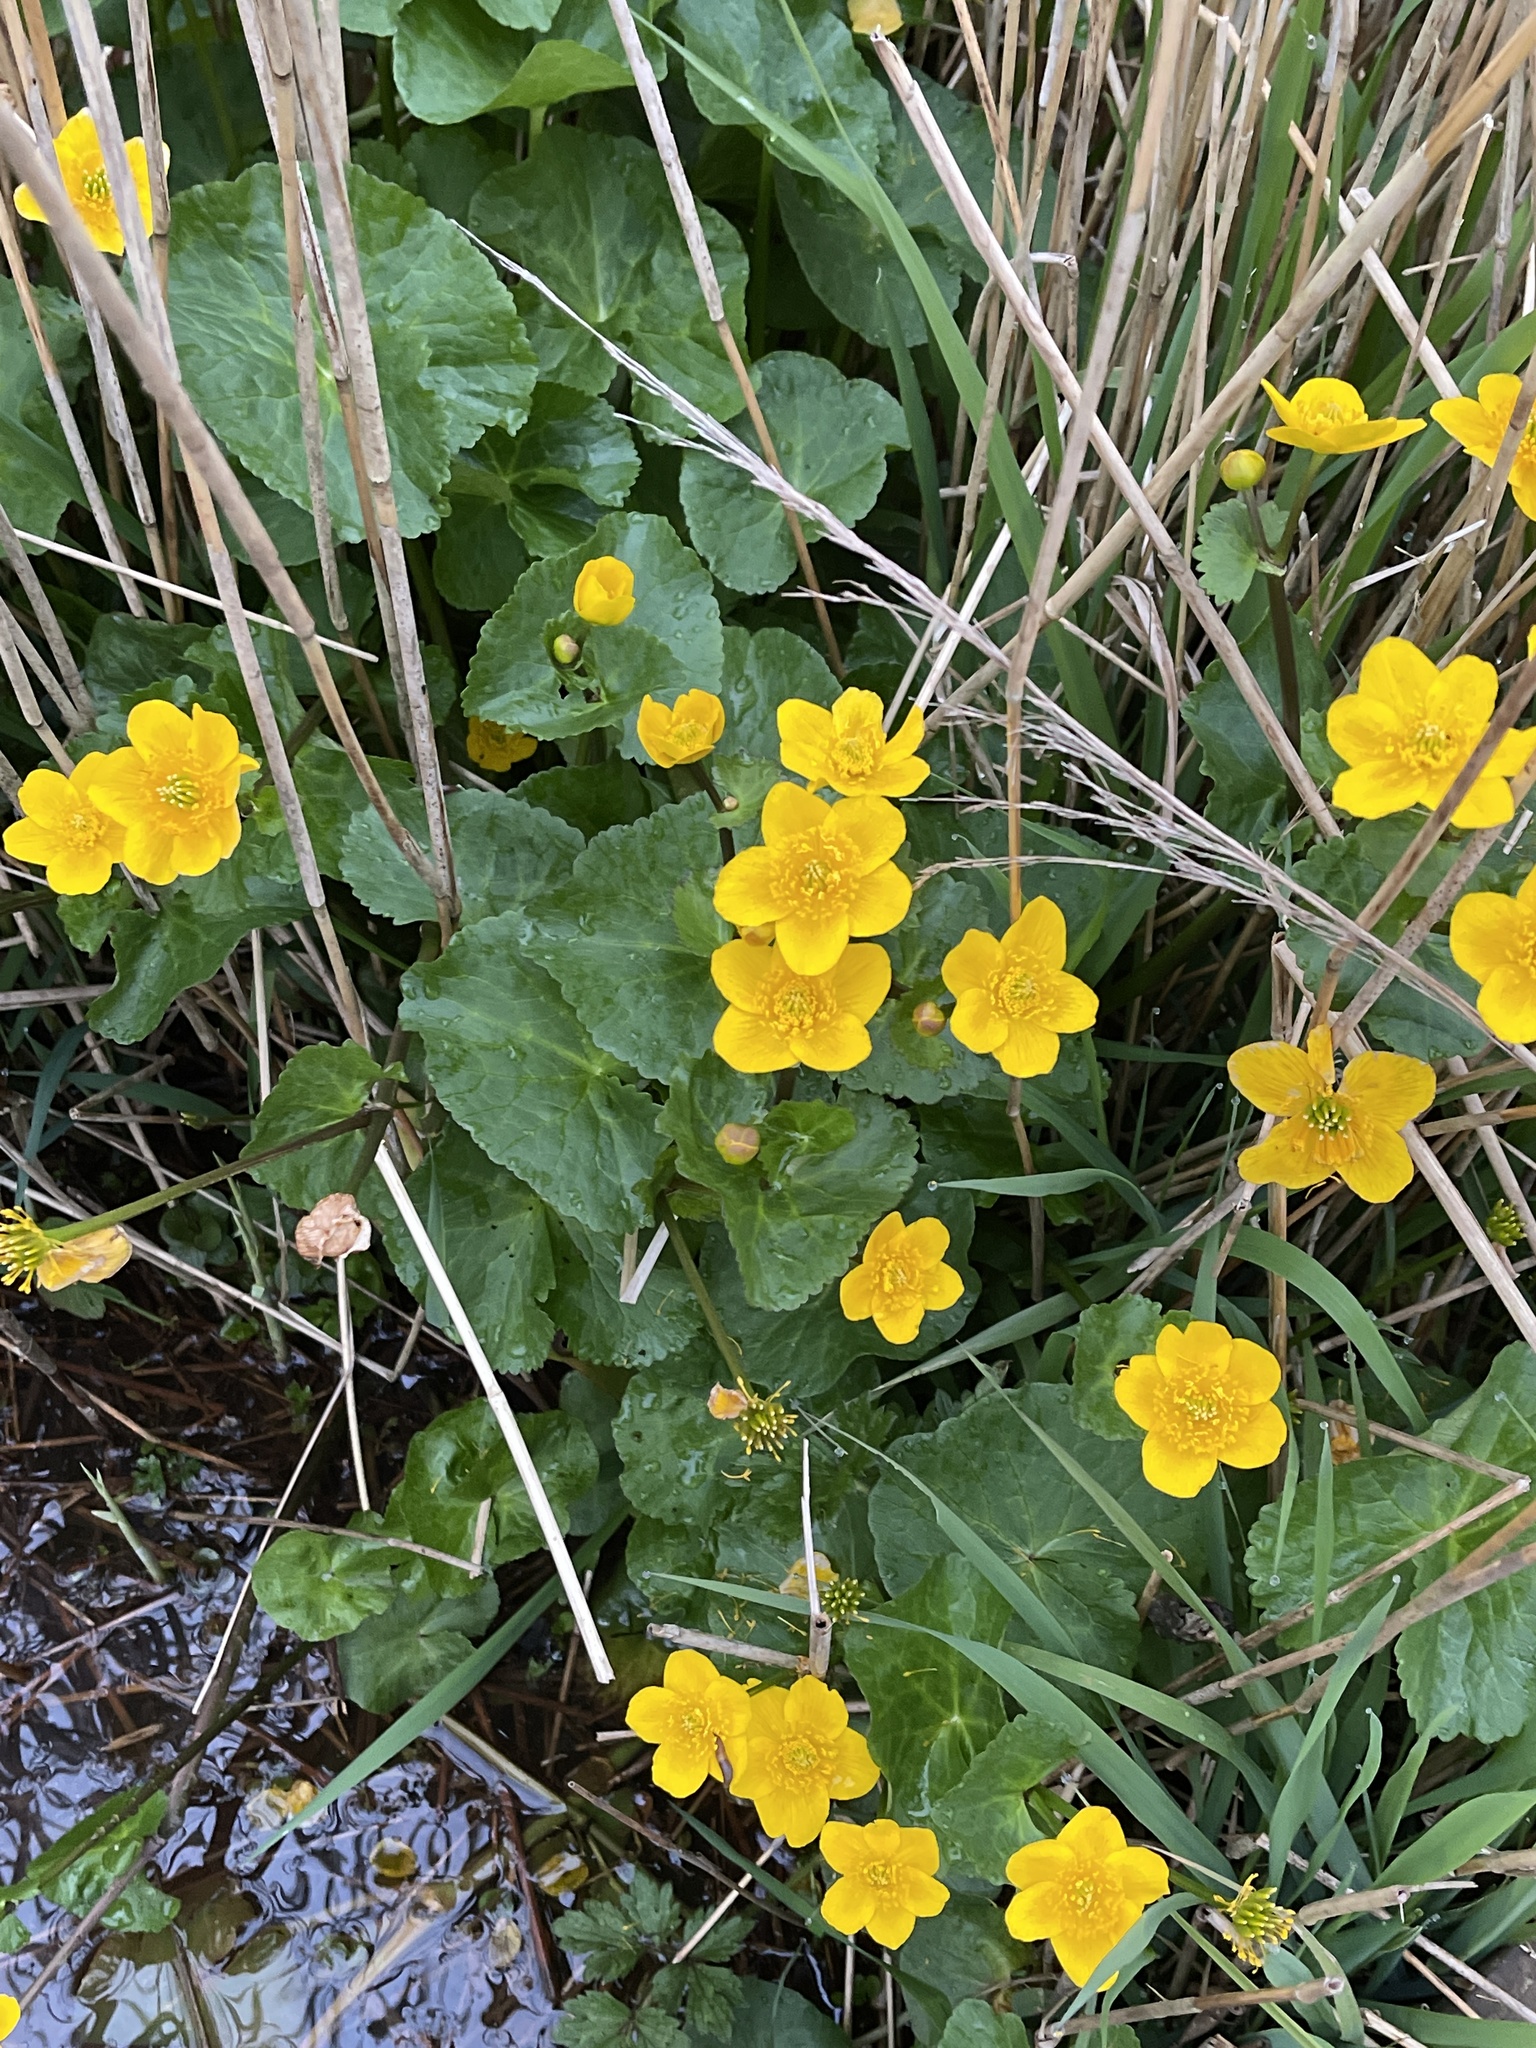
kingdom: Plantae
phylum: Tracheophyta
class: Magnoliopsida
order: Ranunculales
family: Ranunculaceae
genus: Caltha
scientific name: Caltha palustris
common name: Marsh marigold
